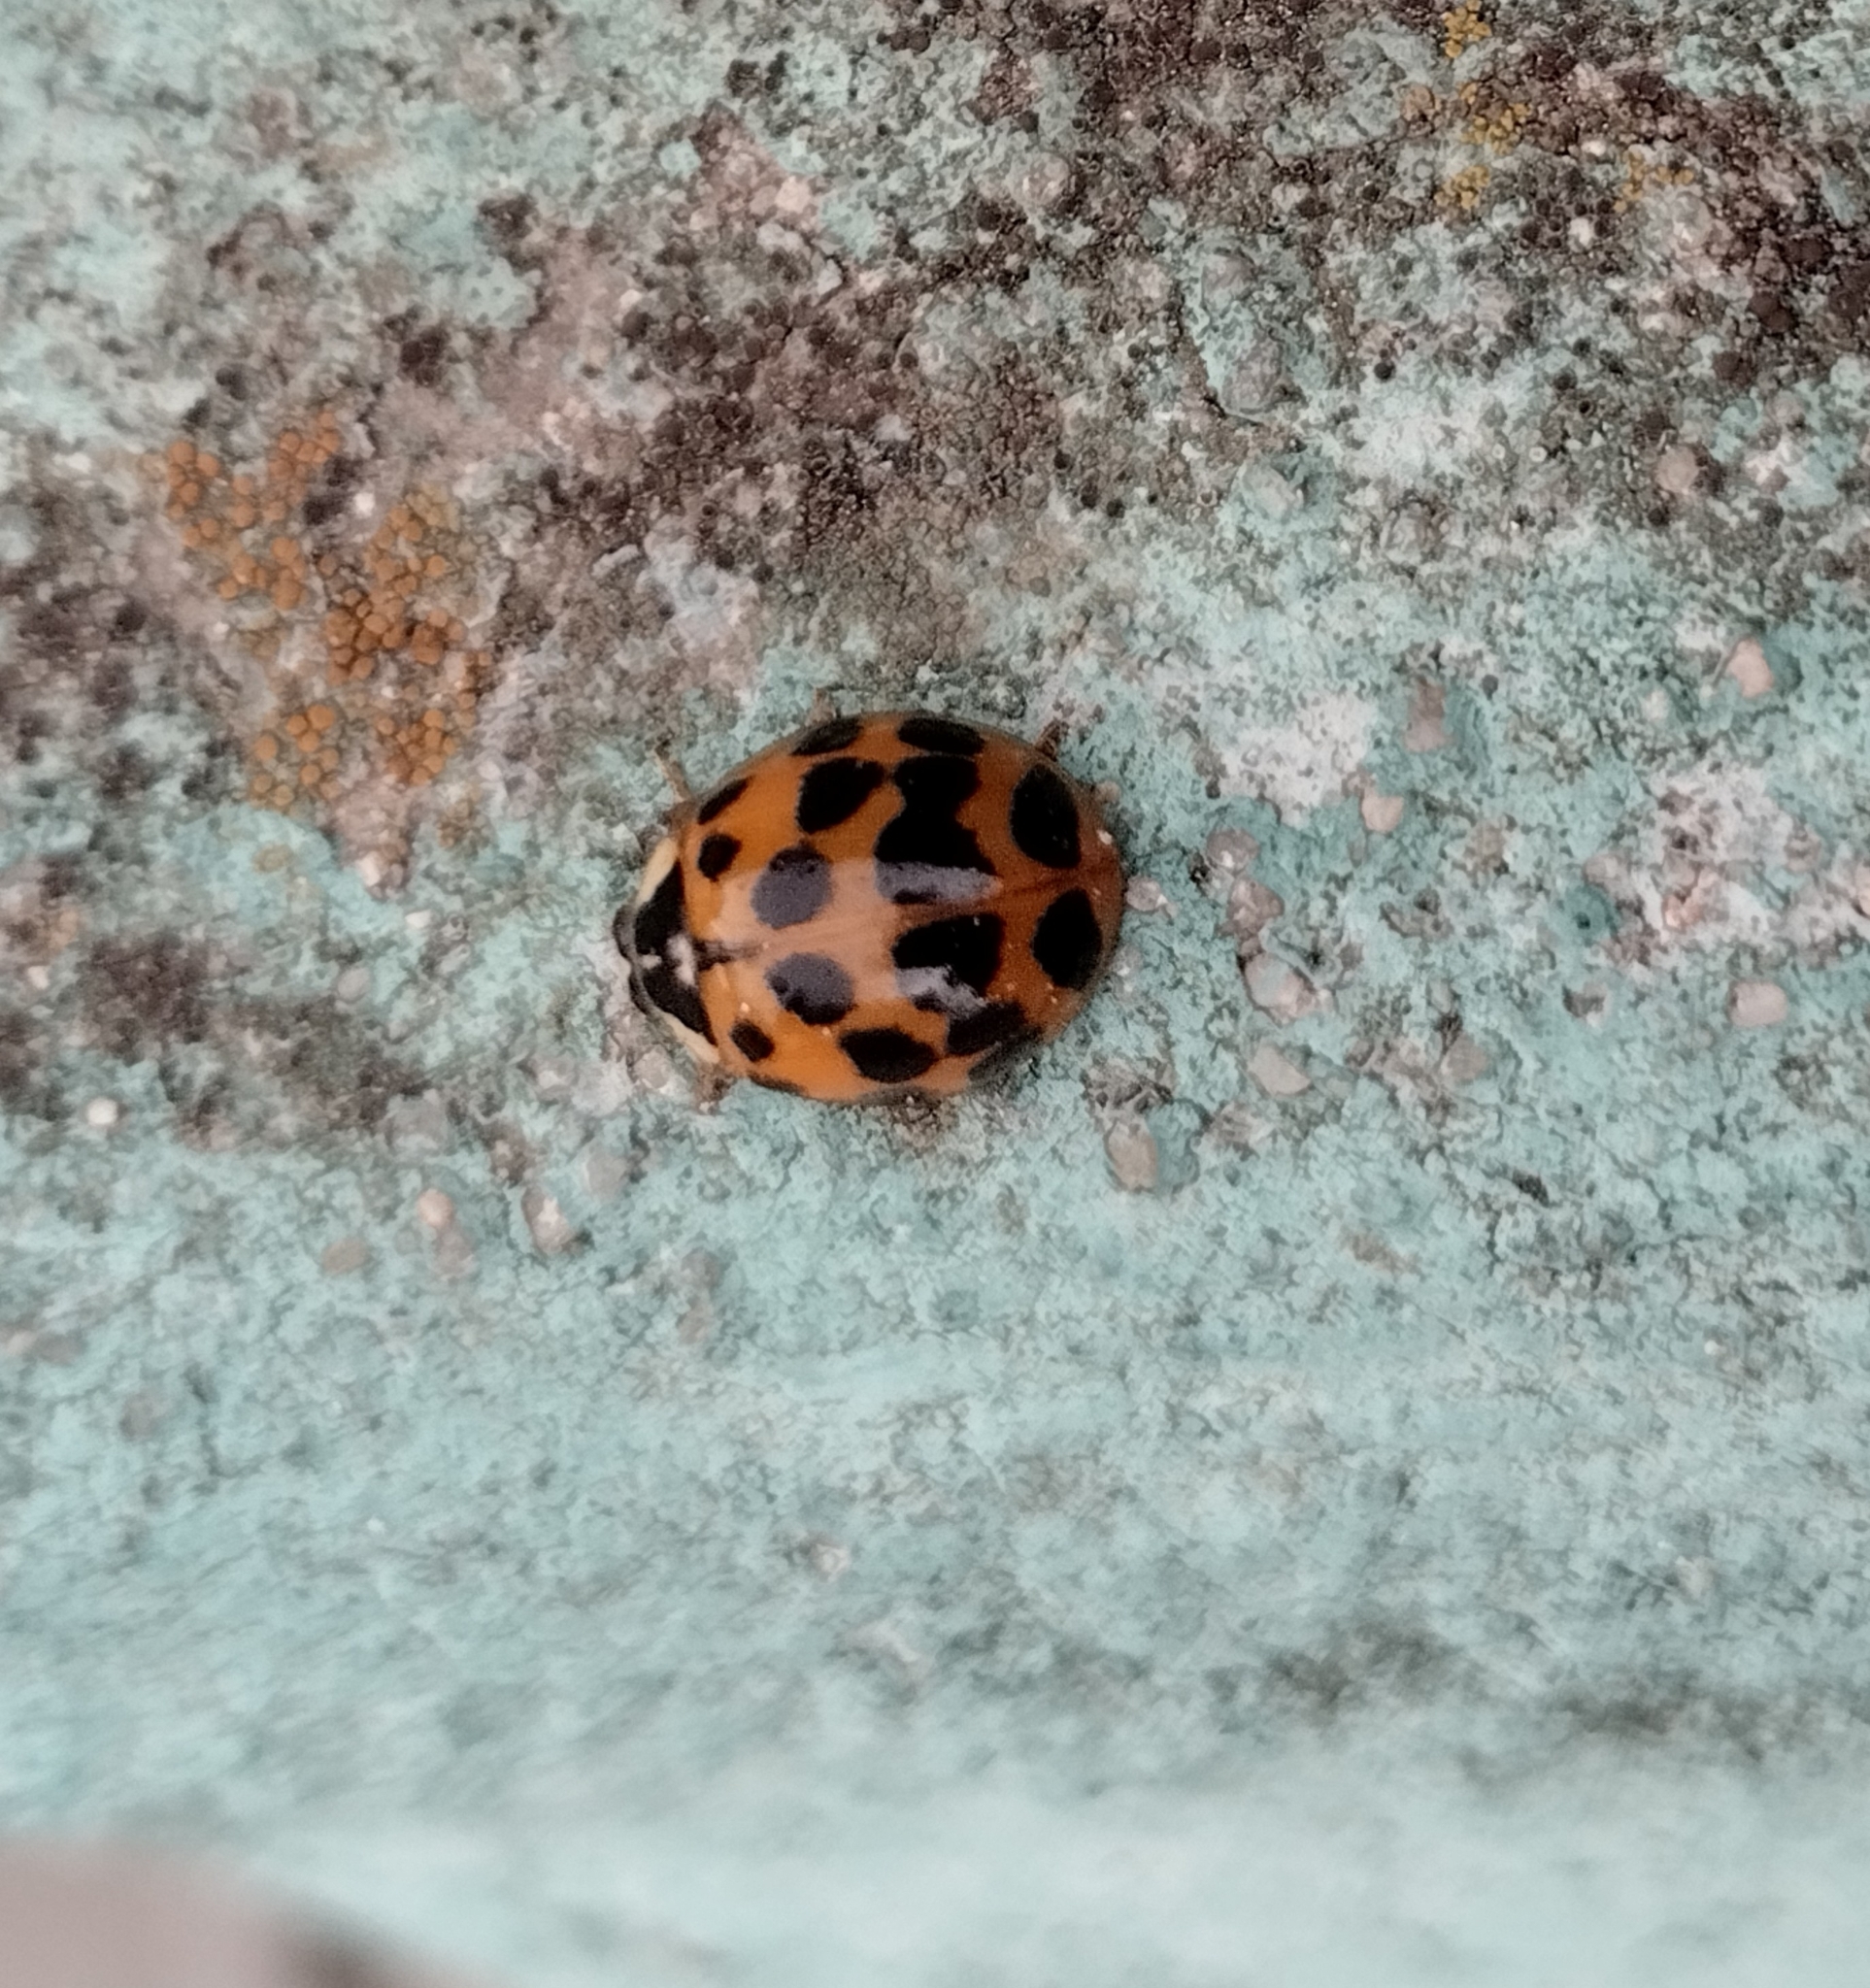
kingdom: Animalia
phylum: Arthropoda
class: Insecta
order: Coleoptera
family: Coccinellidae
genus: Harmonia
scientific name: Harmonia axyridis
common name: Harlequin ladybird
